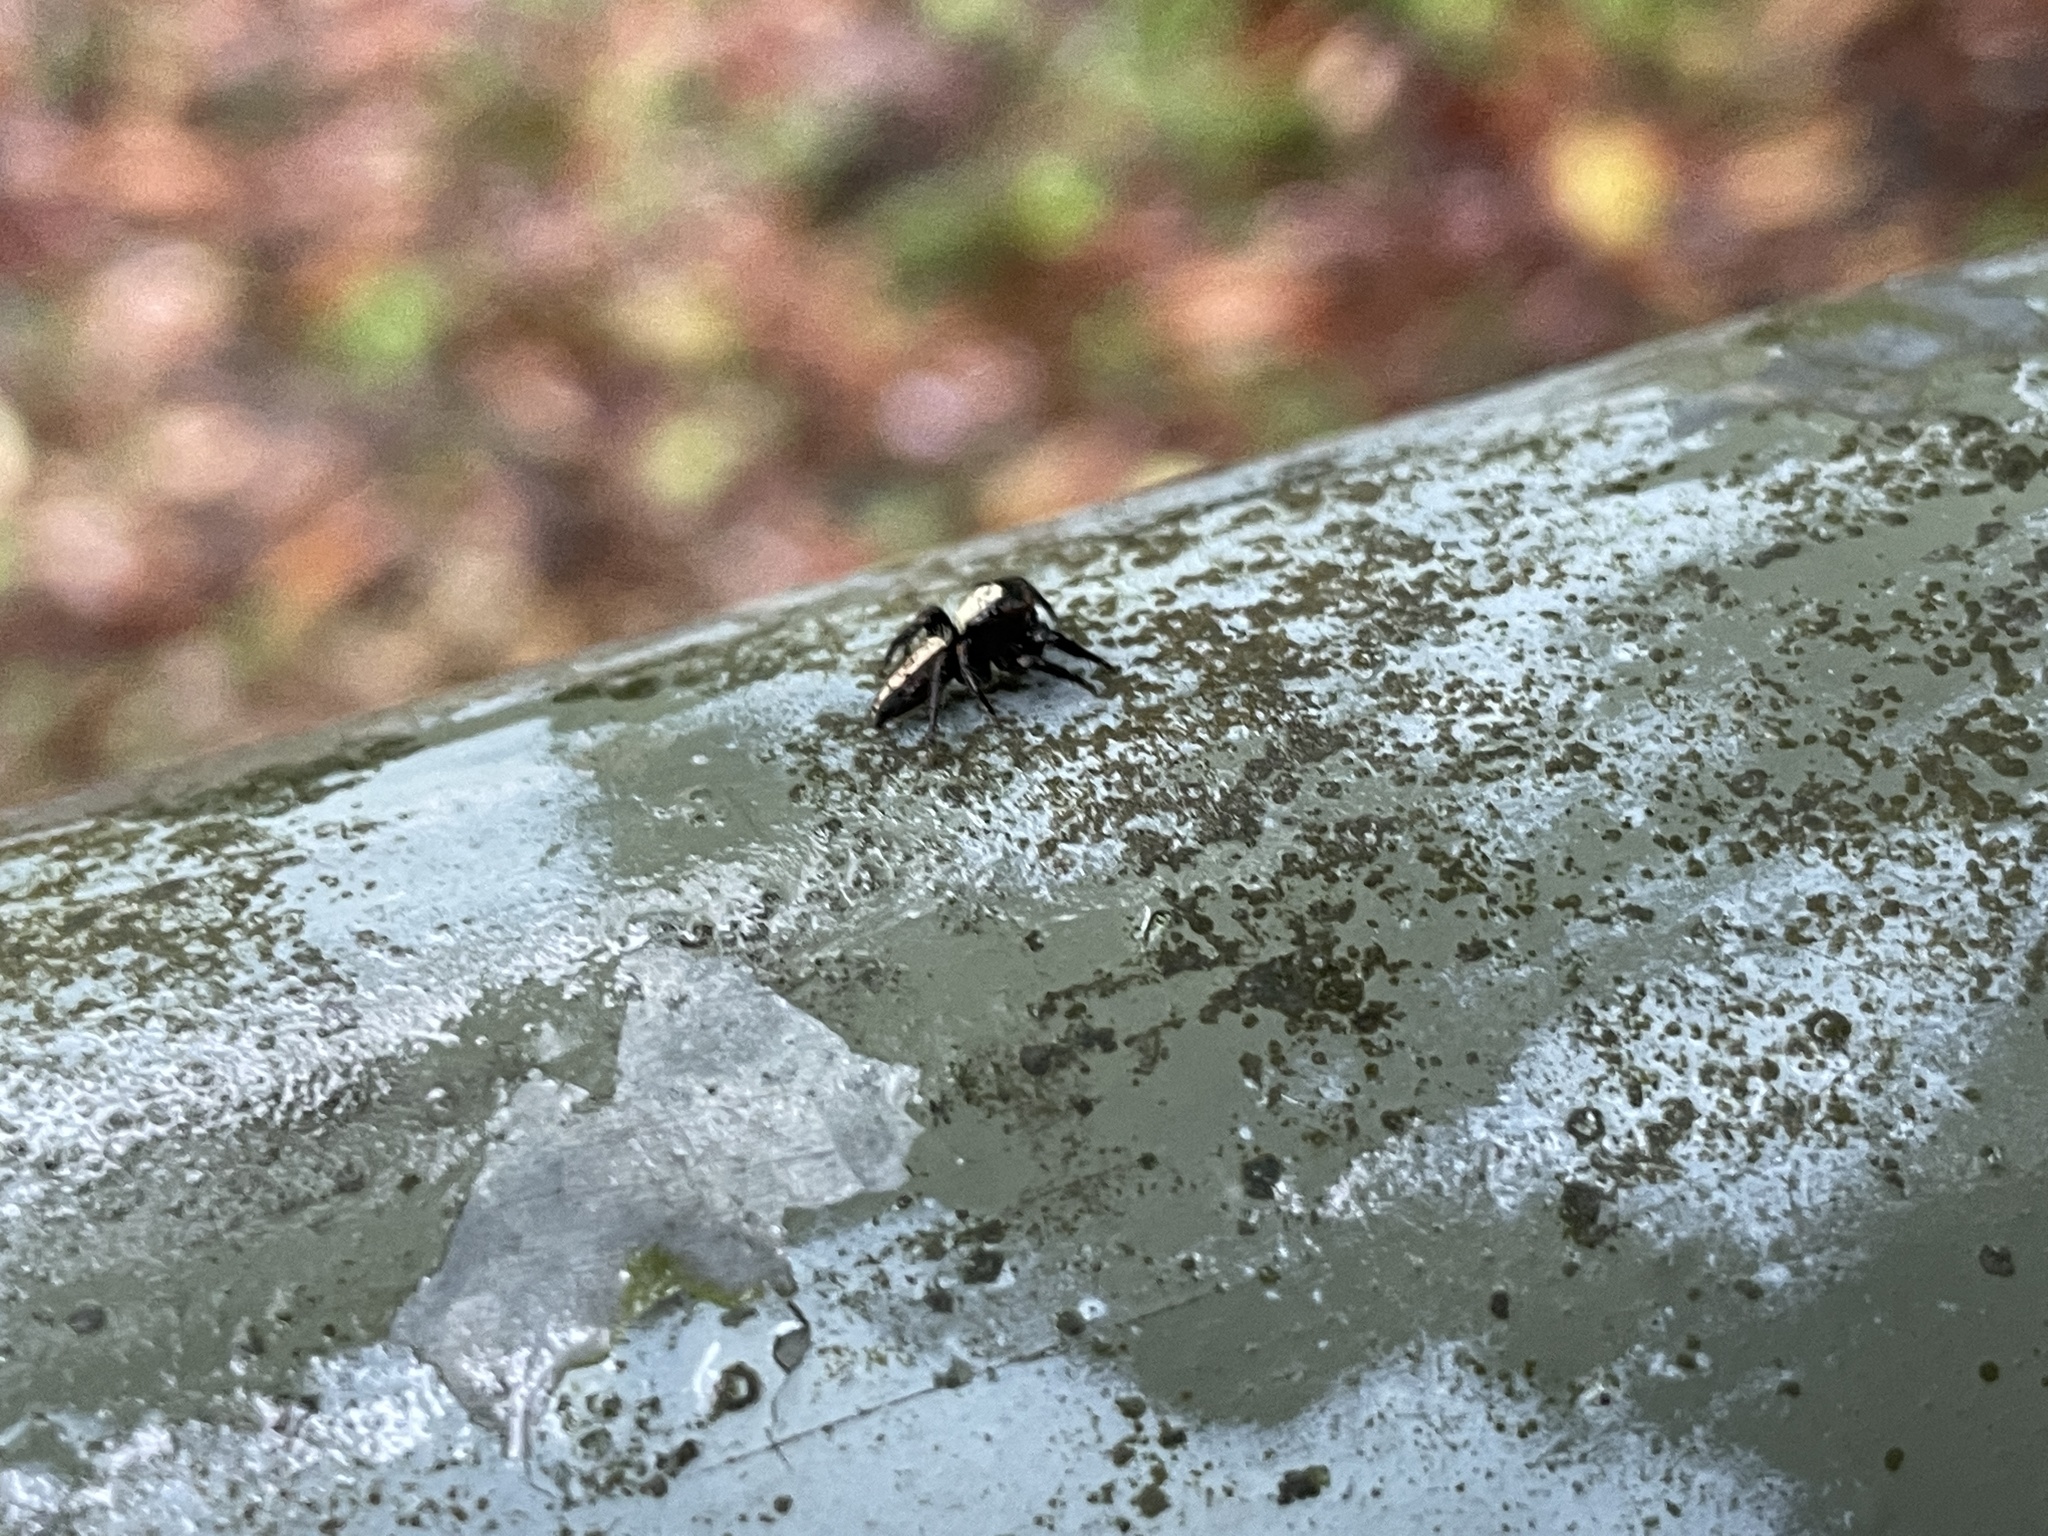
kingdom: Animalia
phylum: Arthropoda
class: Arachnida
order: Araneae
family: Salticidae
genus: Thyene
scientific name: Thyene orientalis
